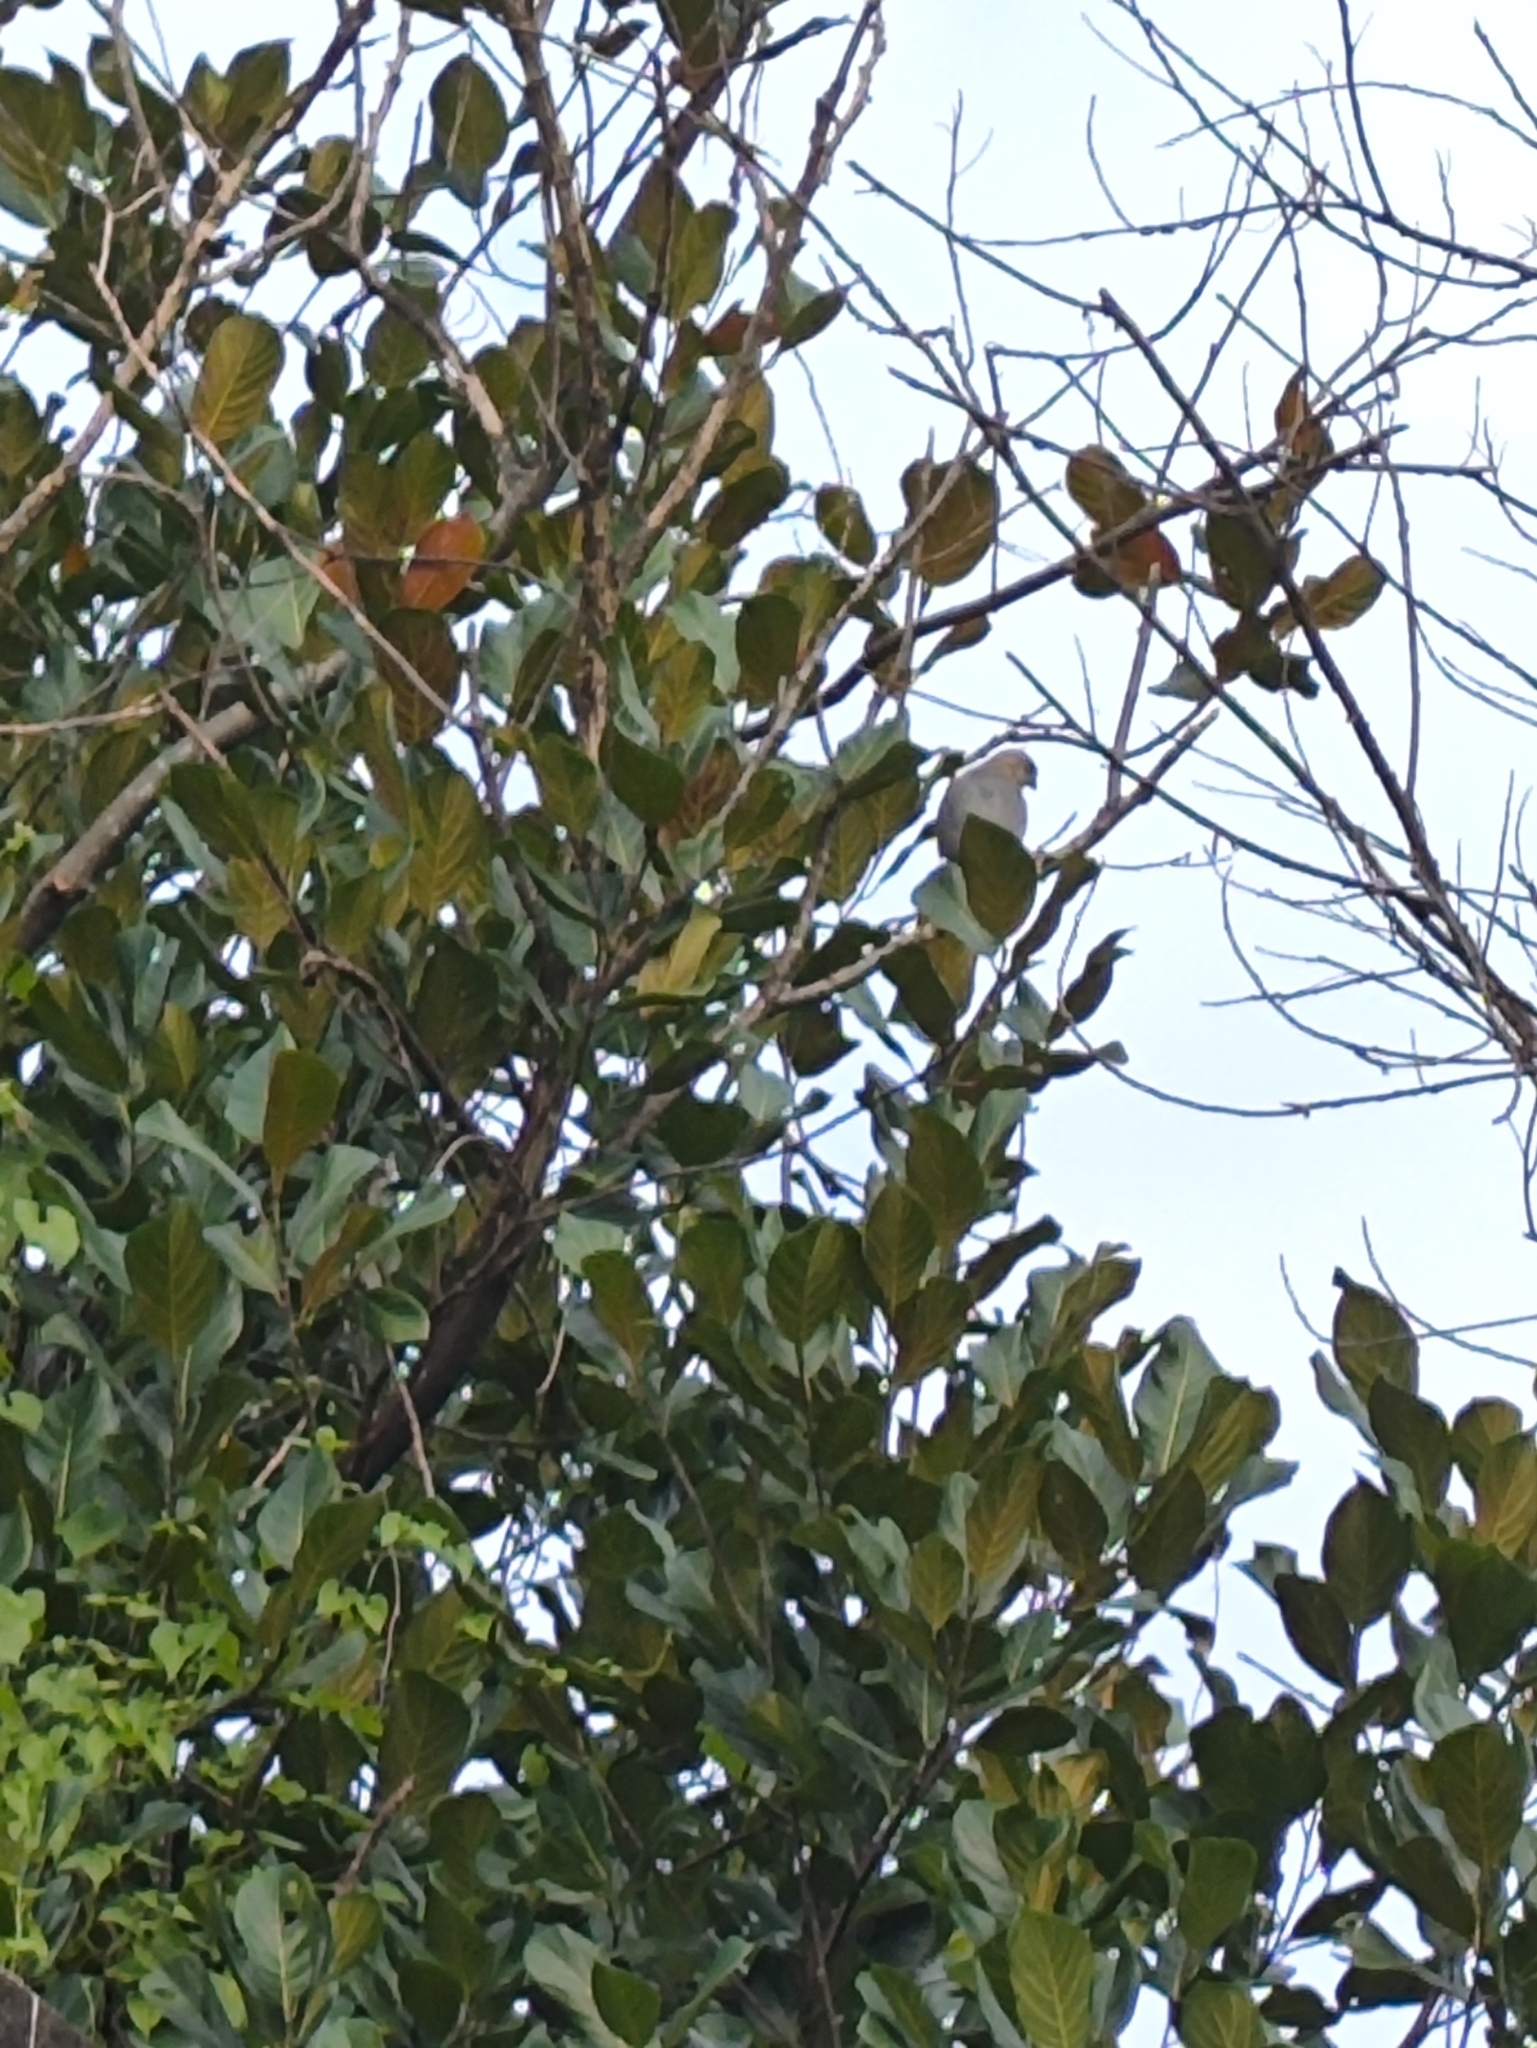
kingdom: Animalia
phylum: Chordata
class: Aves
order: Accipitriformes
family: Accipitridae
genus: Accipiter
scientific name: Accipiter badius
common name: Shikra
